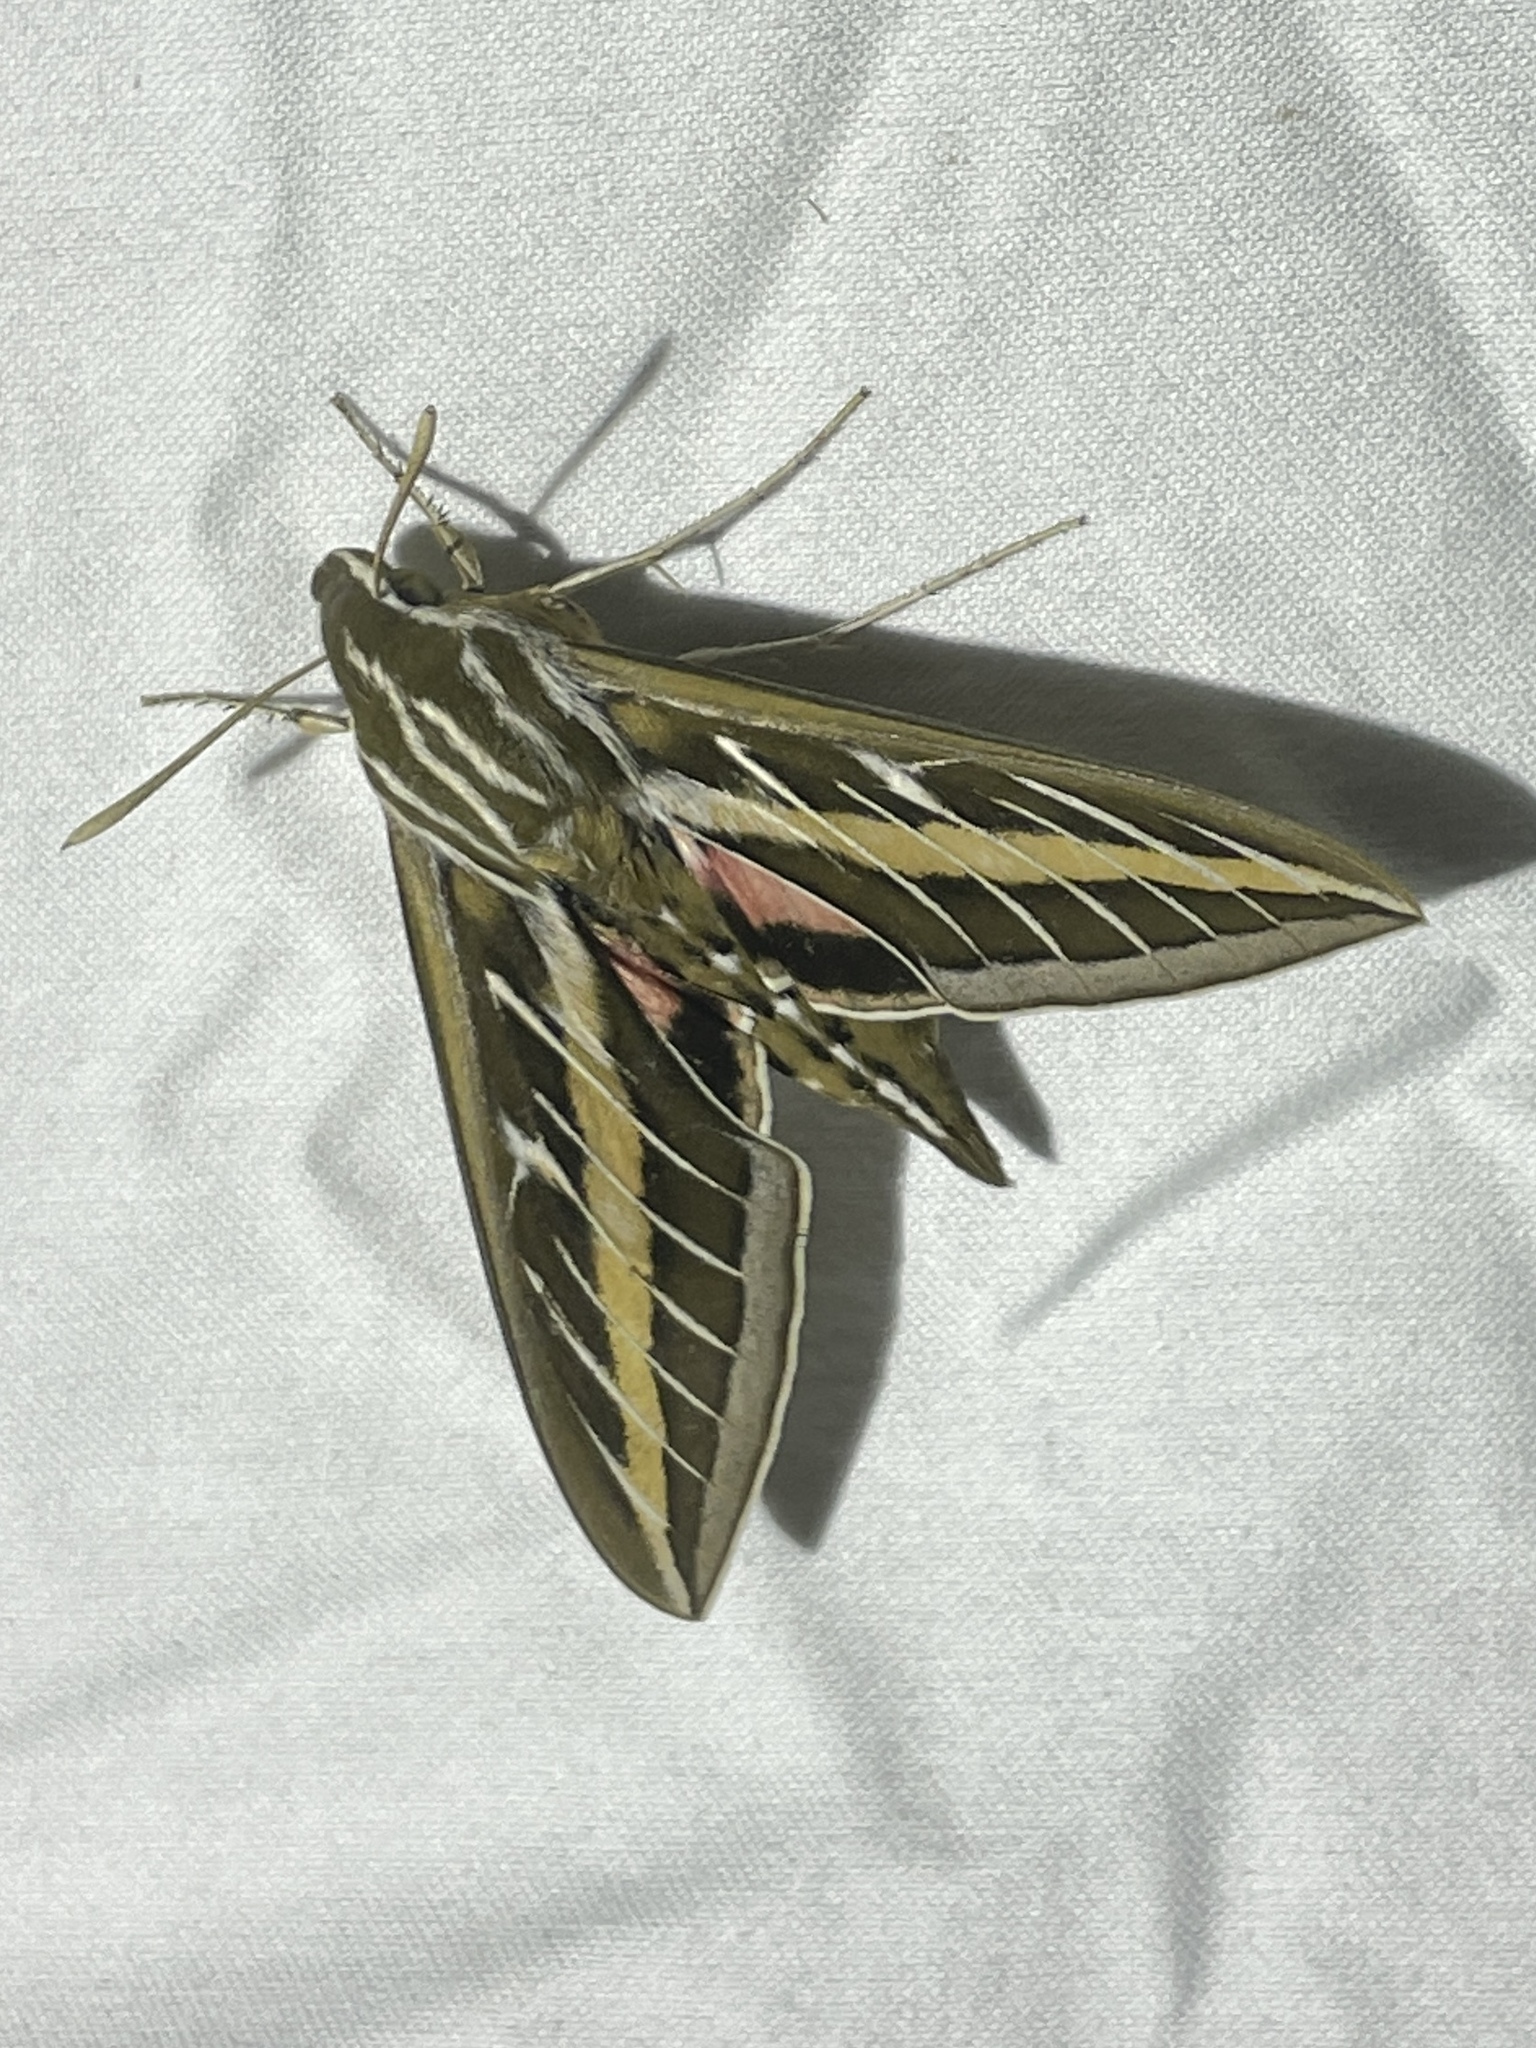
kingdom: Animalia
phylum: Arthropoda
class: Insecta
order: Lepidoptera
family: Sphingidae
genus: Hyles
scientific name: Hyles lineata
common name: White-lined sphinx
